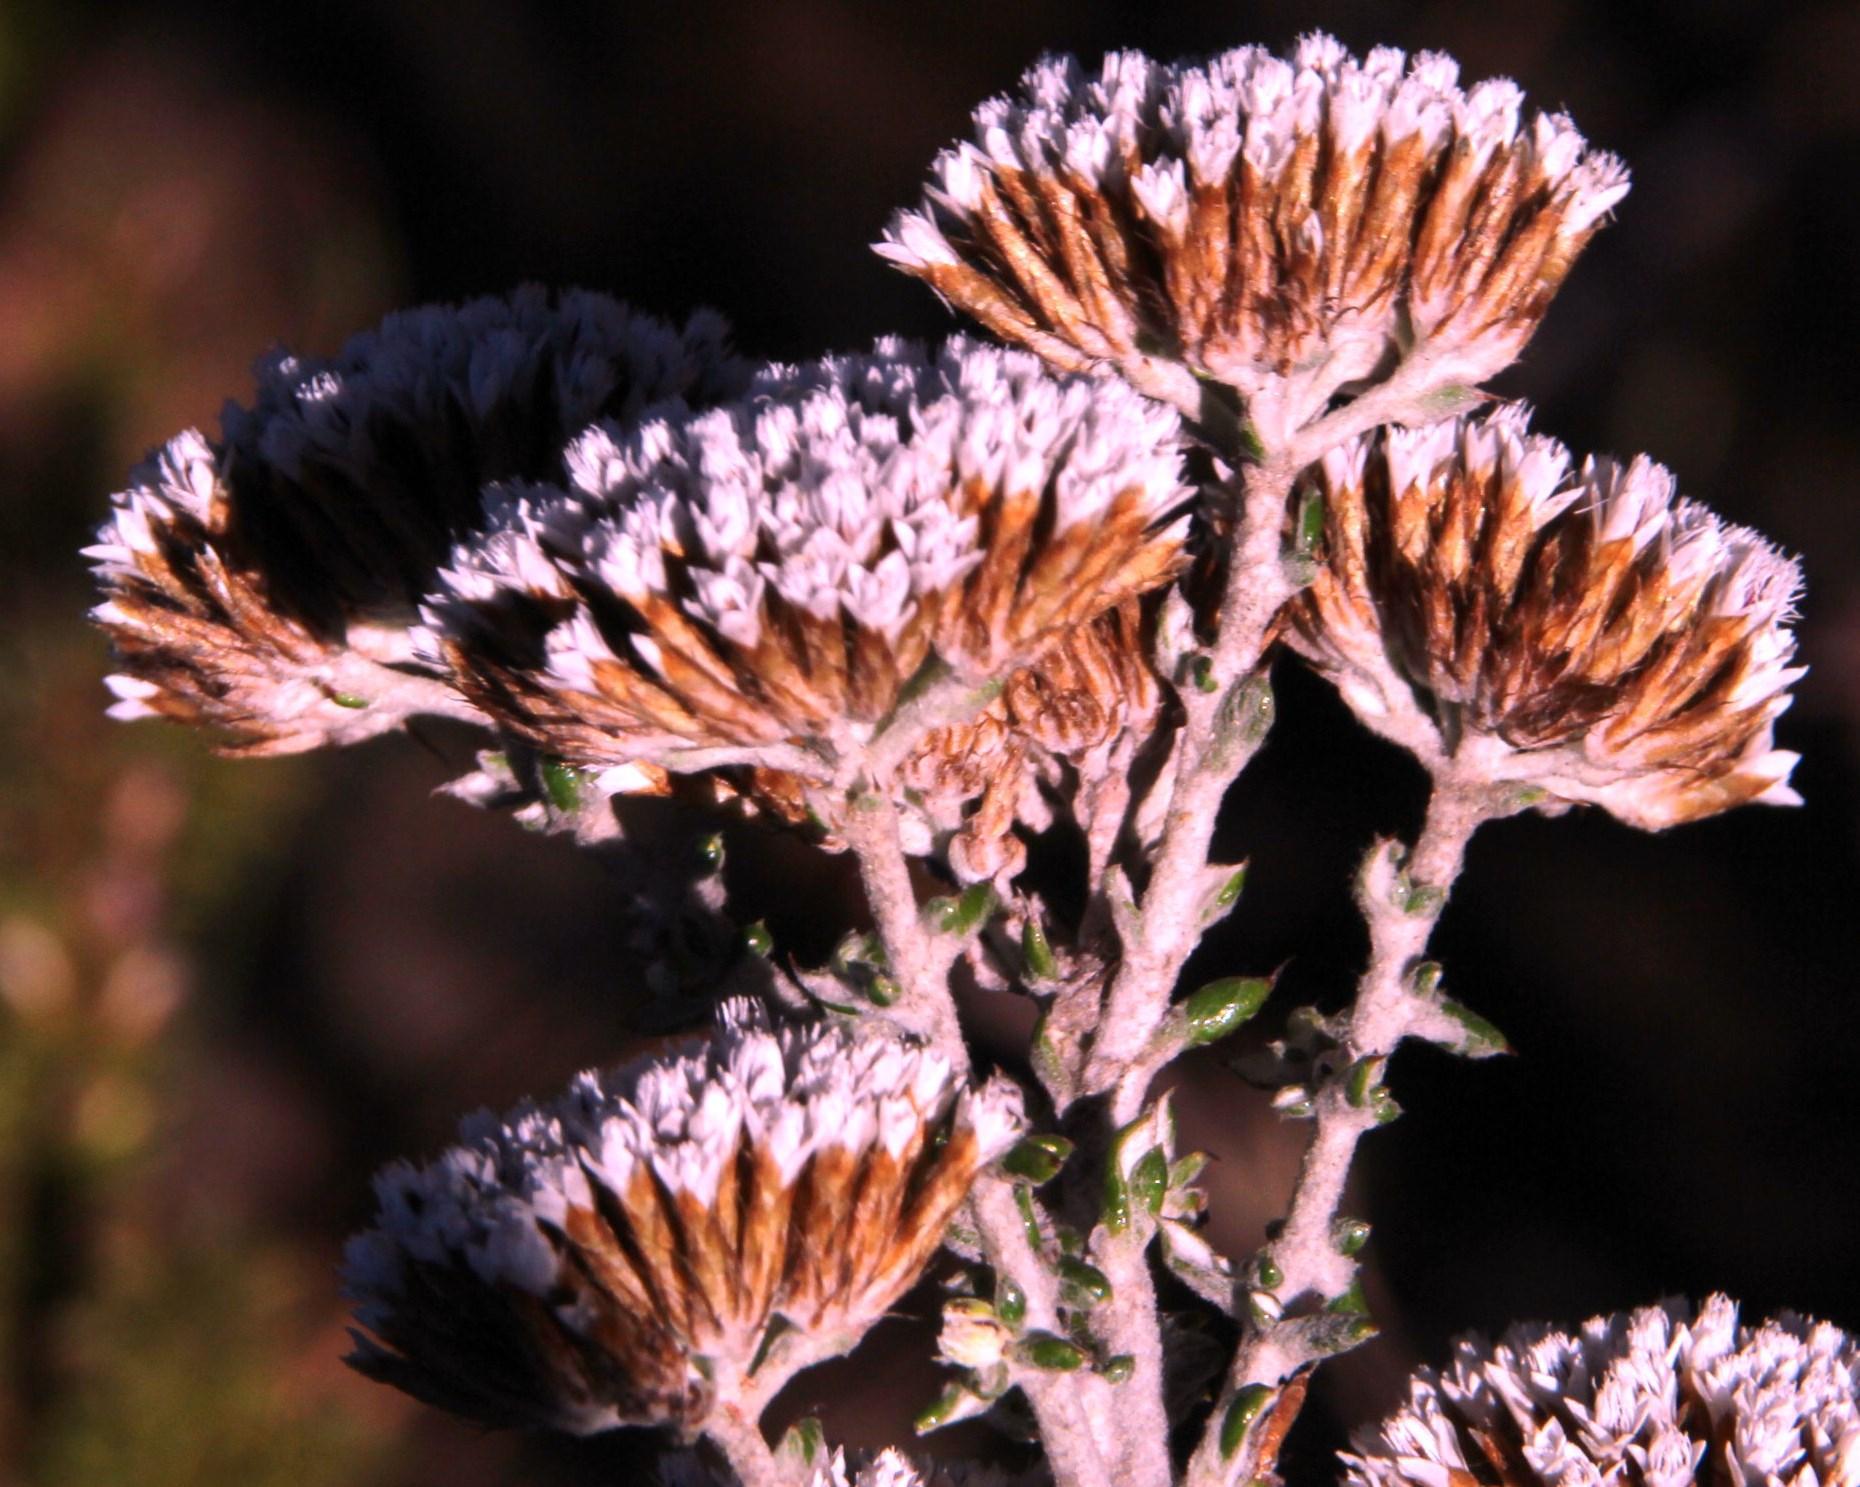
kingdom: Plantae
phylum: Tracheophyta
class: Magnoliopsida
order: Asterales
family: Asteraceae
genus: Metalasia
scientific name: Metalasia densa
